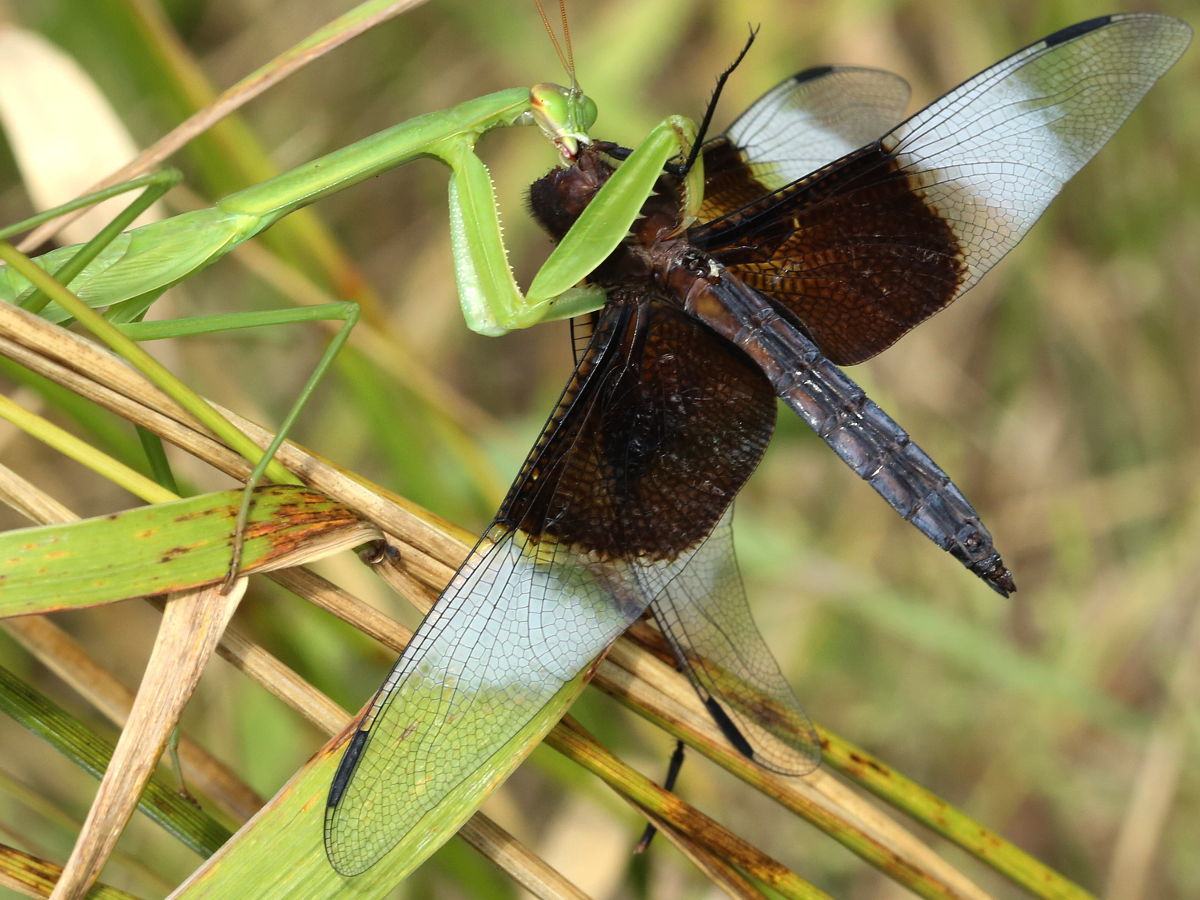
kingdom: Animalia
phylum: Arthropoda
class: Insecta
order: Odonata
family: Libellulidae
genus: Libellula
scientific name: Libellula luctuosa
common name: Widow skimmer
